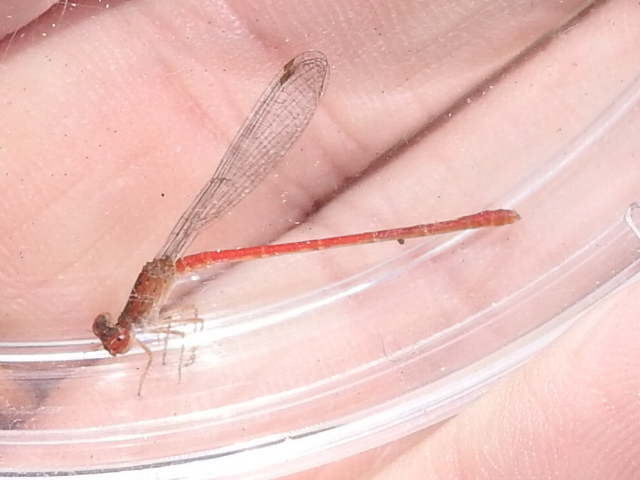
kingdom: Animalia
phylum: Arthropoda
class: Insecta
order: Odonata
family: Coenagrionidae
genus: Telebasis
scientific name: Telebasis salva
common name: Desert firetail
